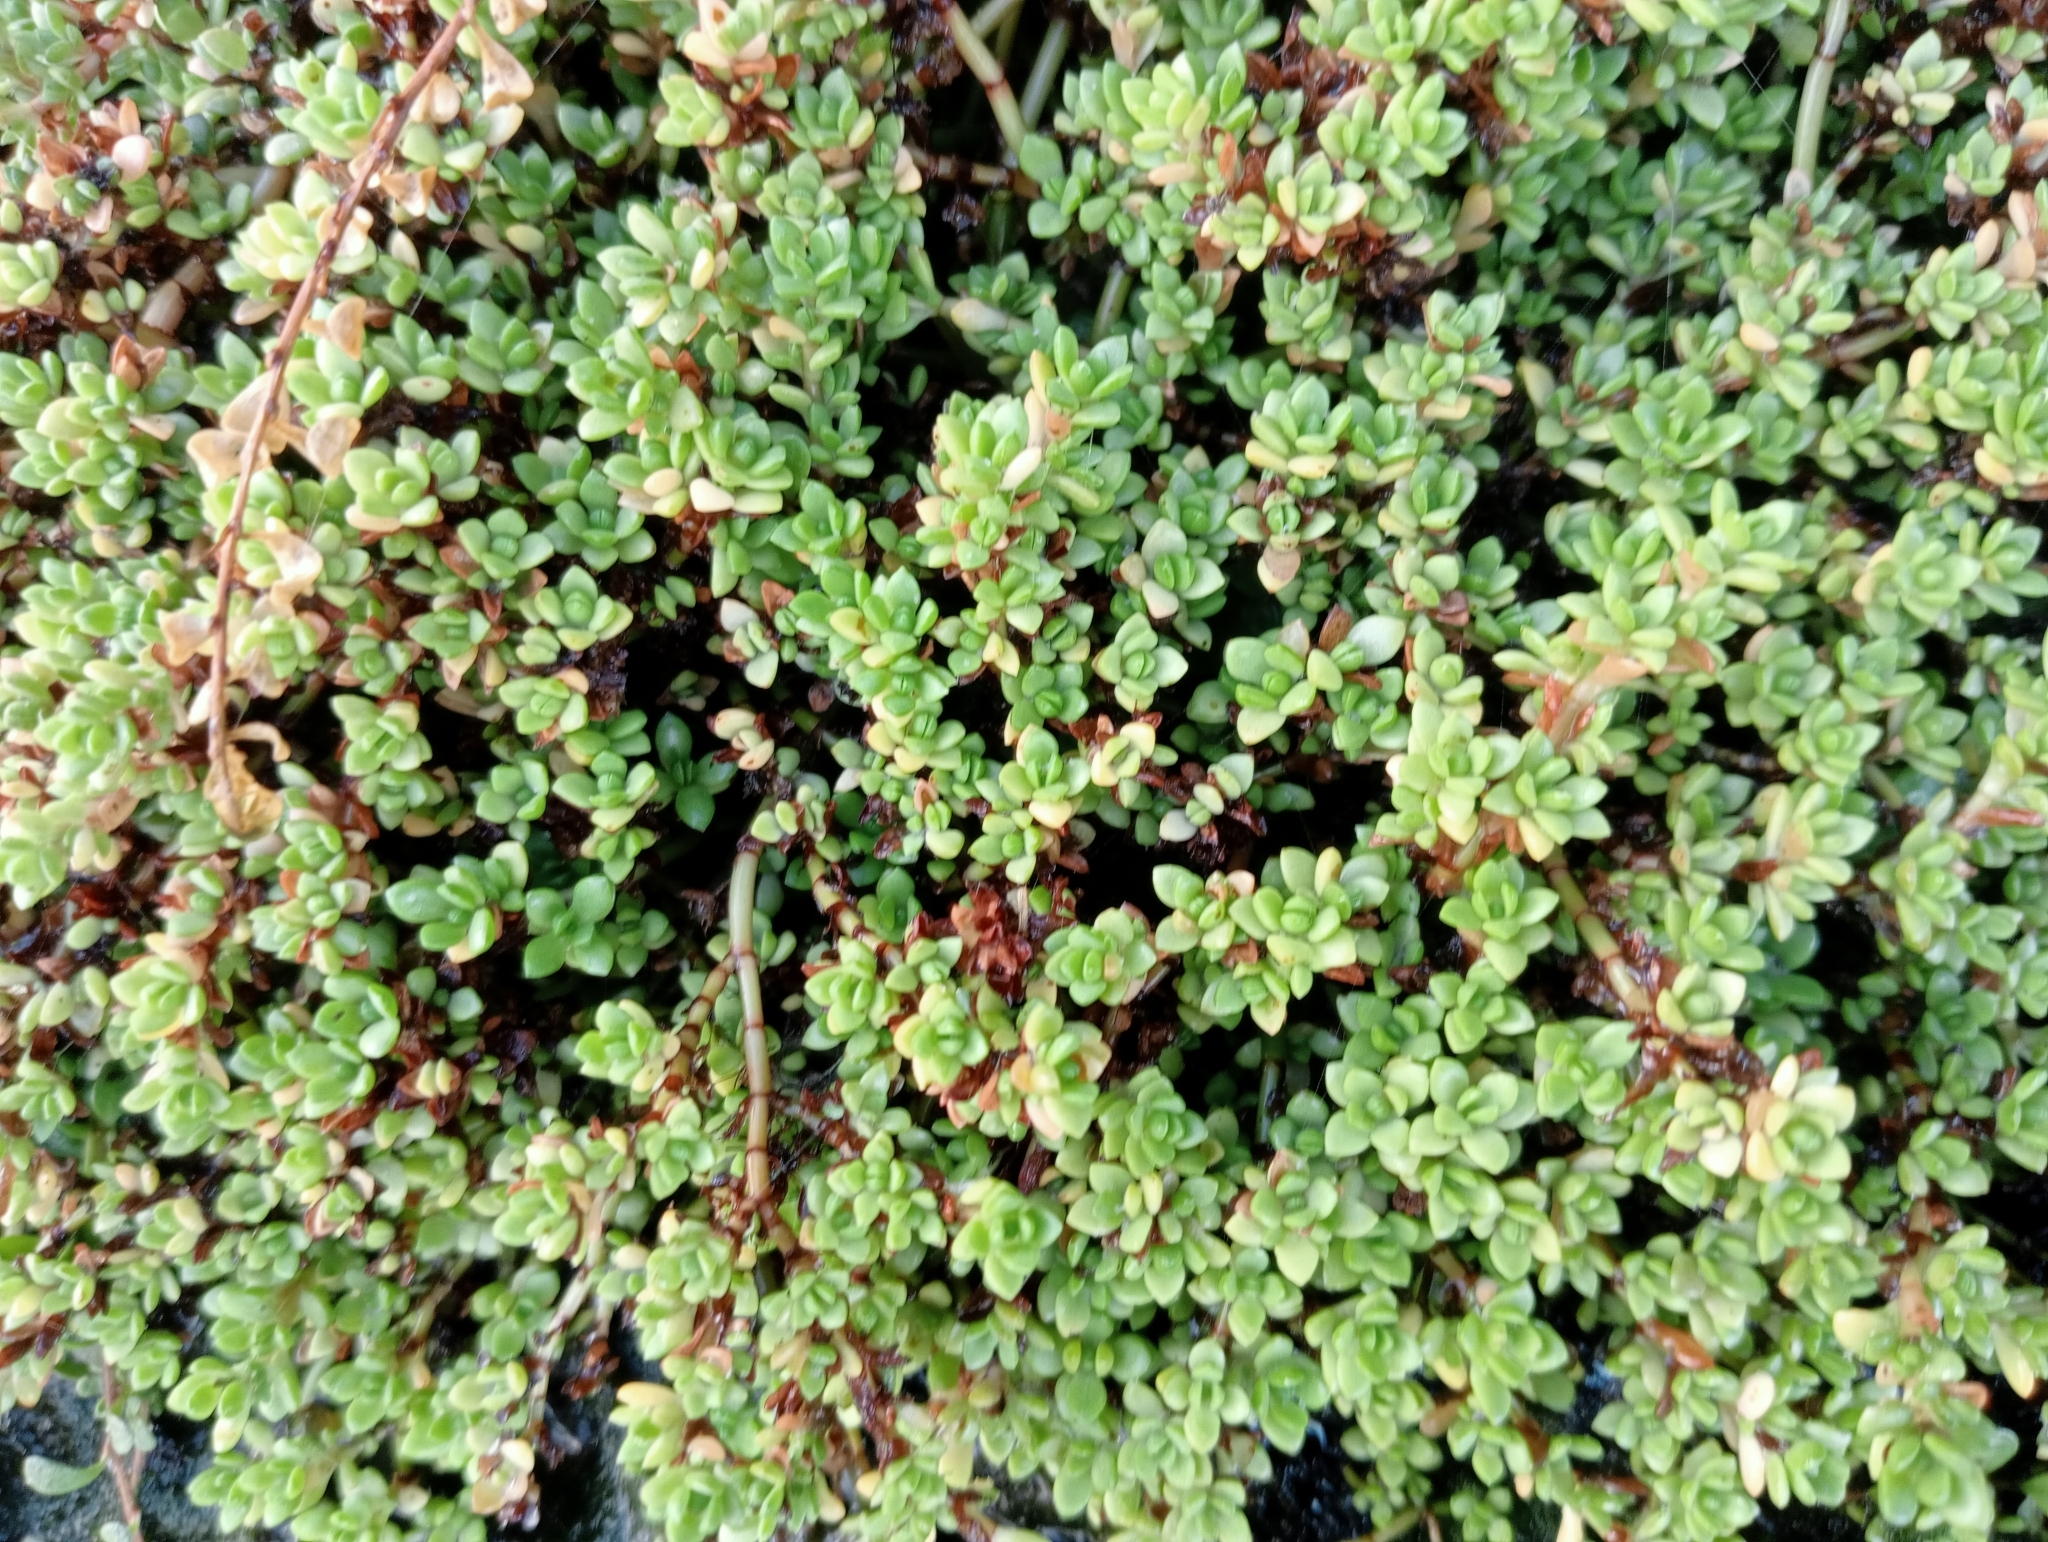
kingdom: Plantae
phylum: Tracheophyta
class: Magnoliopsida
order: Saxifragales
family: Crassulaceae
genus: Crassula
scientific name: Crassula moschata
